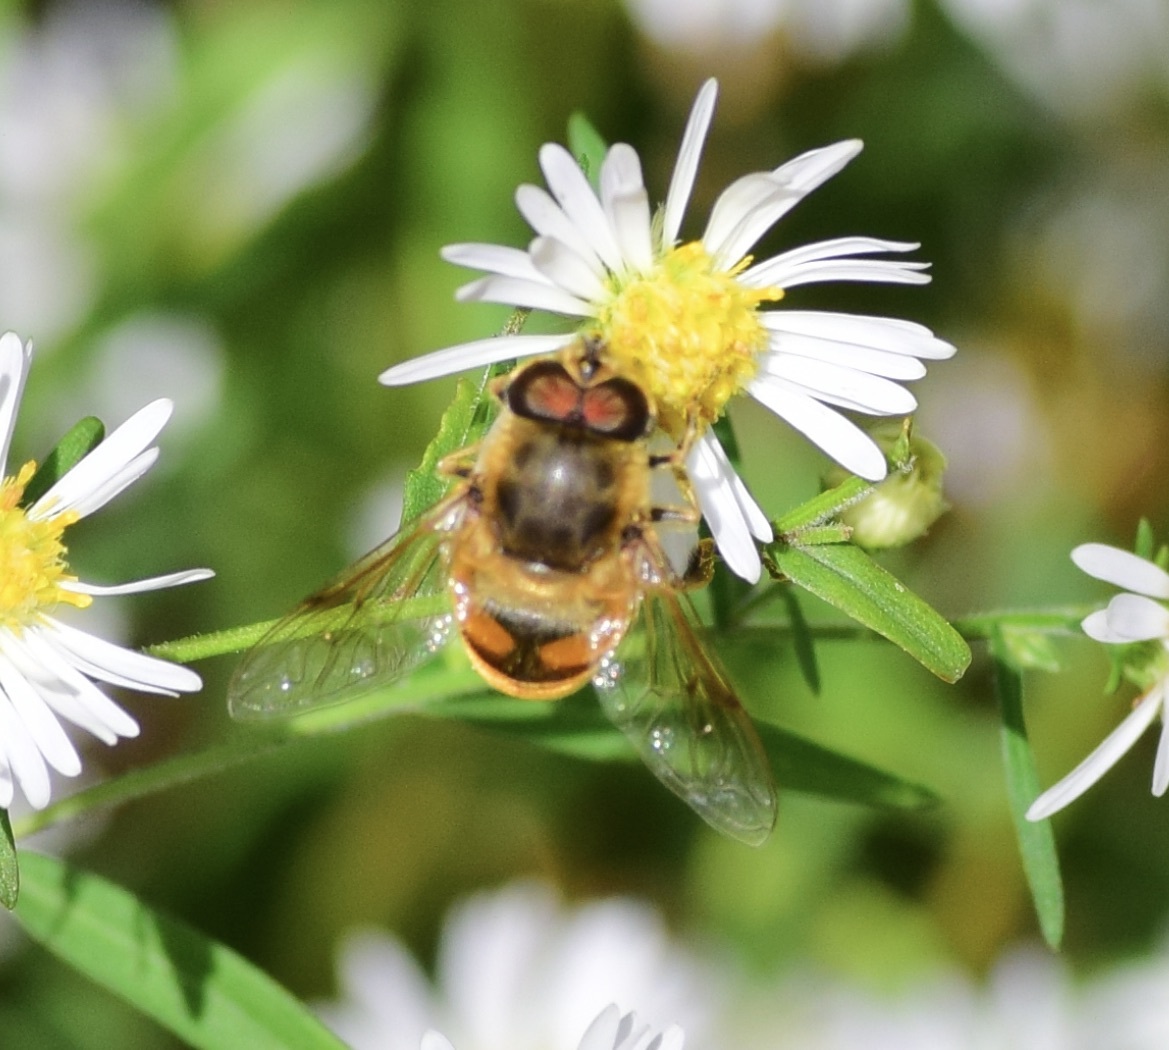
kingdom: Animalia
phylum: Arthropoda
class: Insecta
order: Diptera
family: Syrphidae
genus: Eristalis
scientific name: Eristalis tenax
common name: Drone fly
